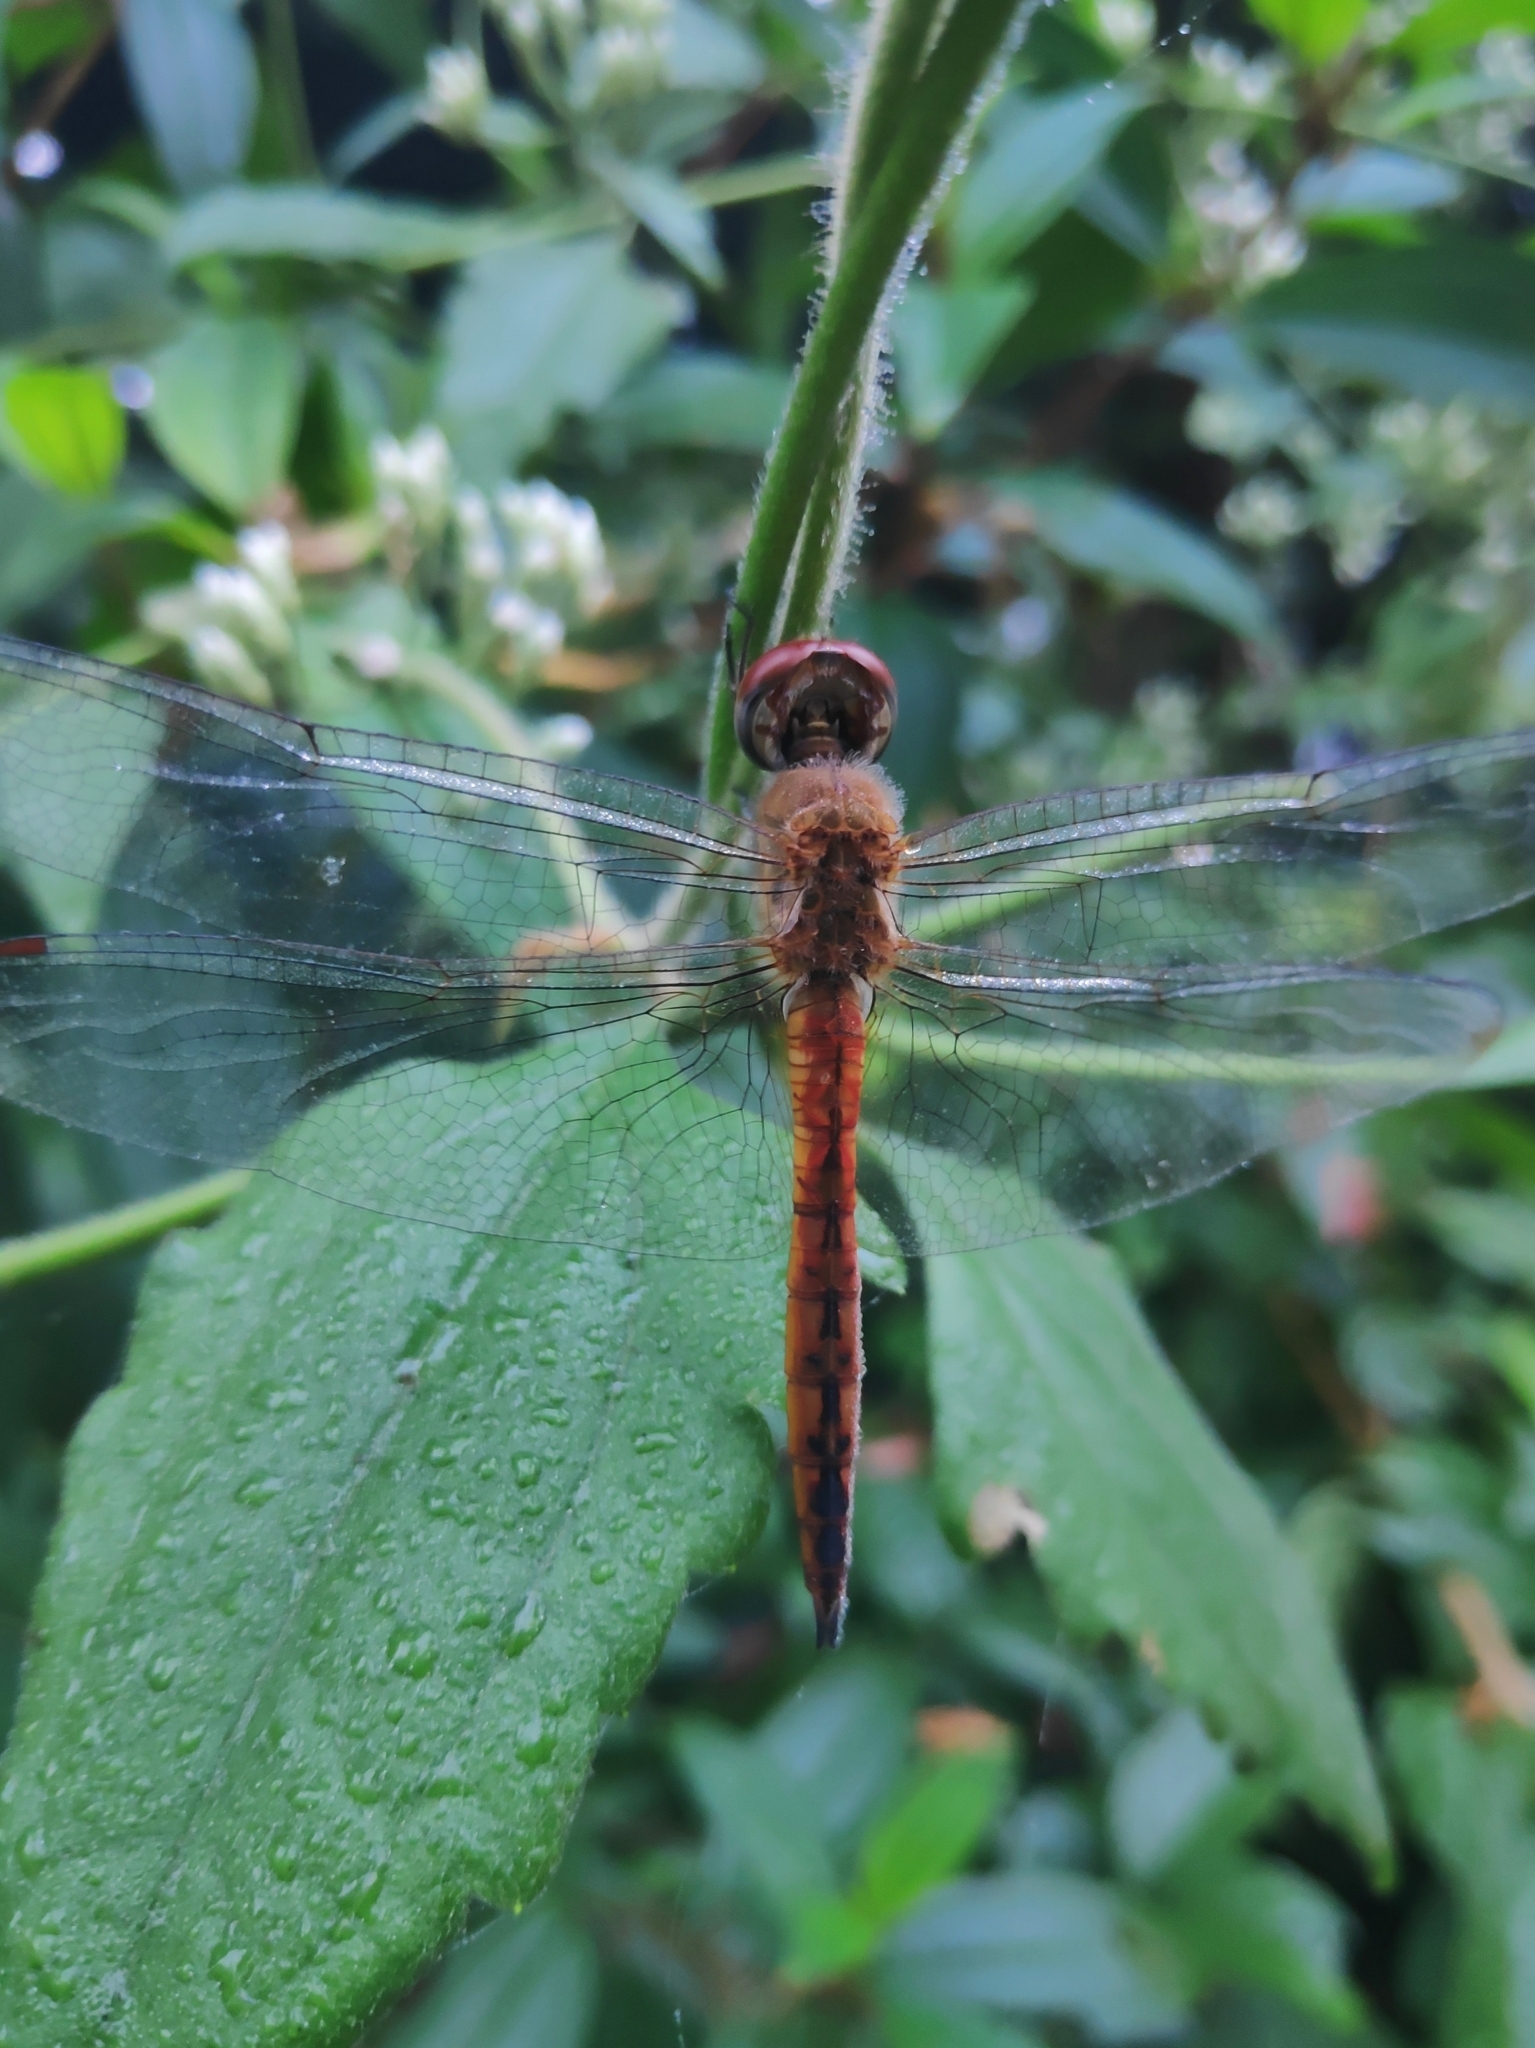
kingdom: Animalia
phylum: Arthropoda
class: Insecta
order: Odonata
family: Libellulidae
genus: Pantala
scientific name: Pantala flavescens
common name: Wandering glider
